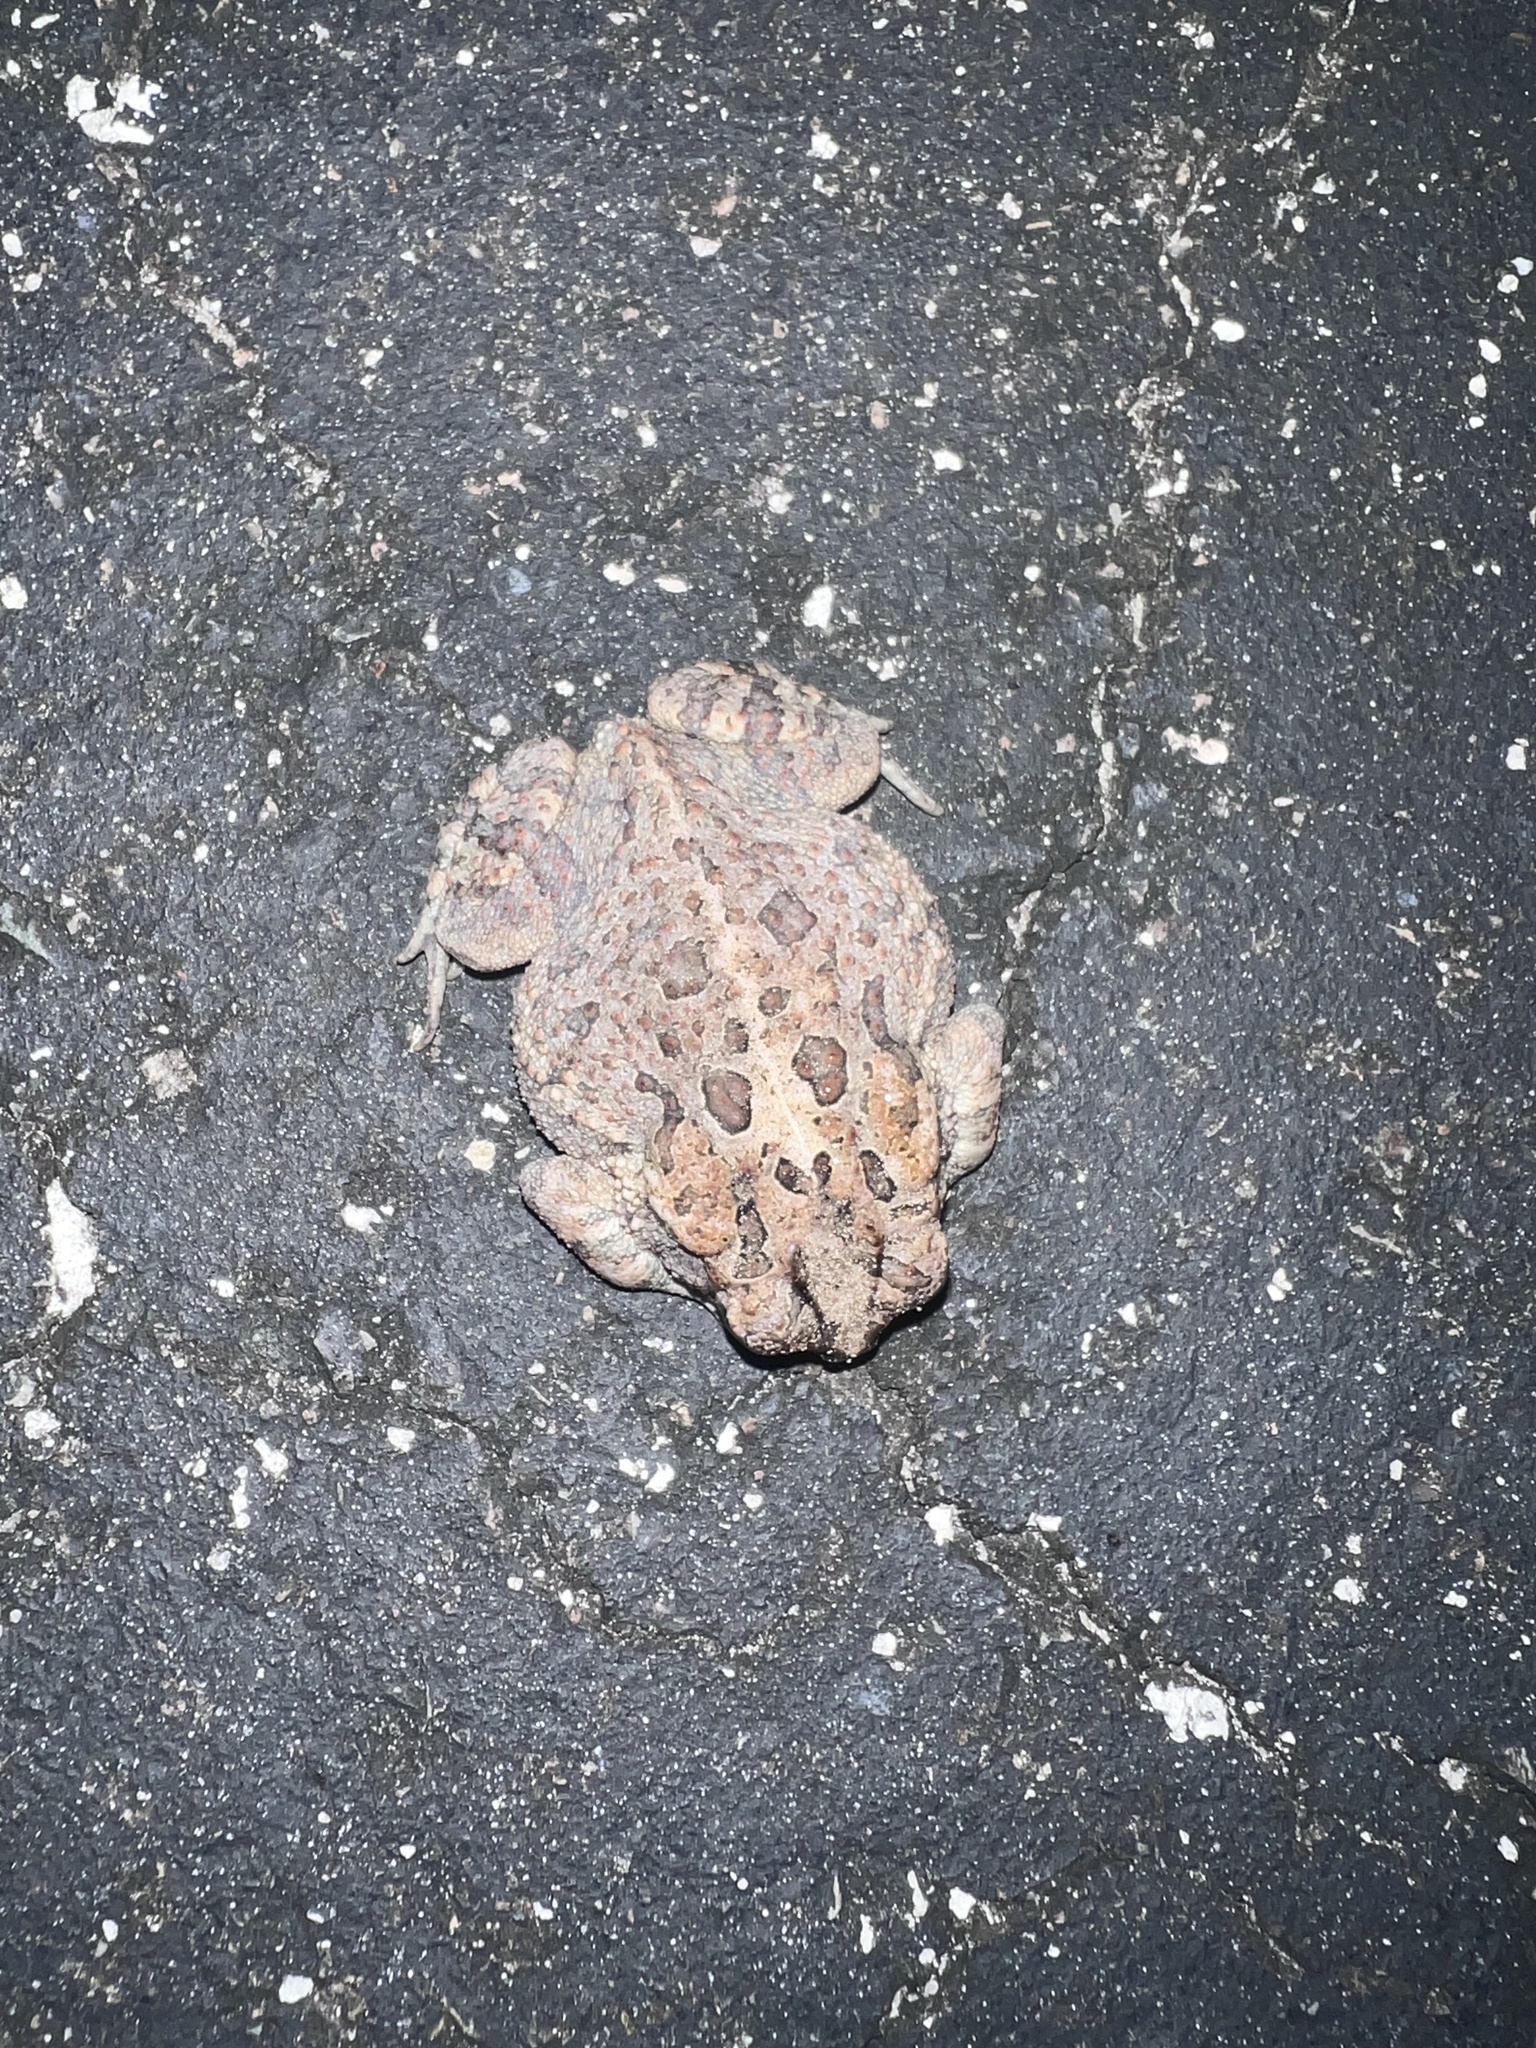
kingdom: Animalia
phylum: Chordata
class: Amphibia
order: Anura
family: Bufonidae
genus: Anaxyrus
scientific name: Anaxyrus terrestris
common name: Southern toad
